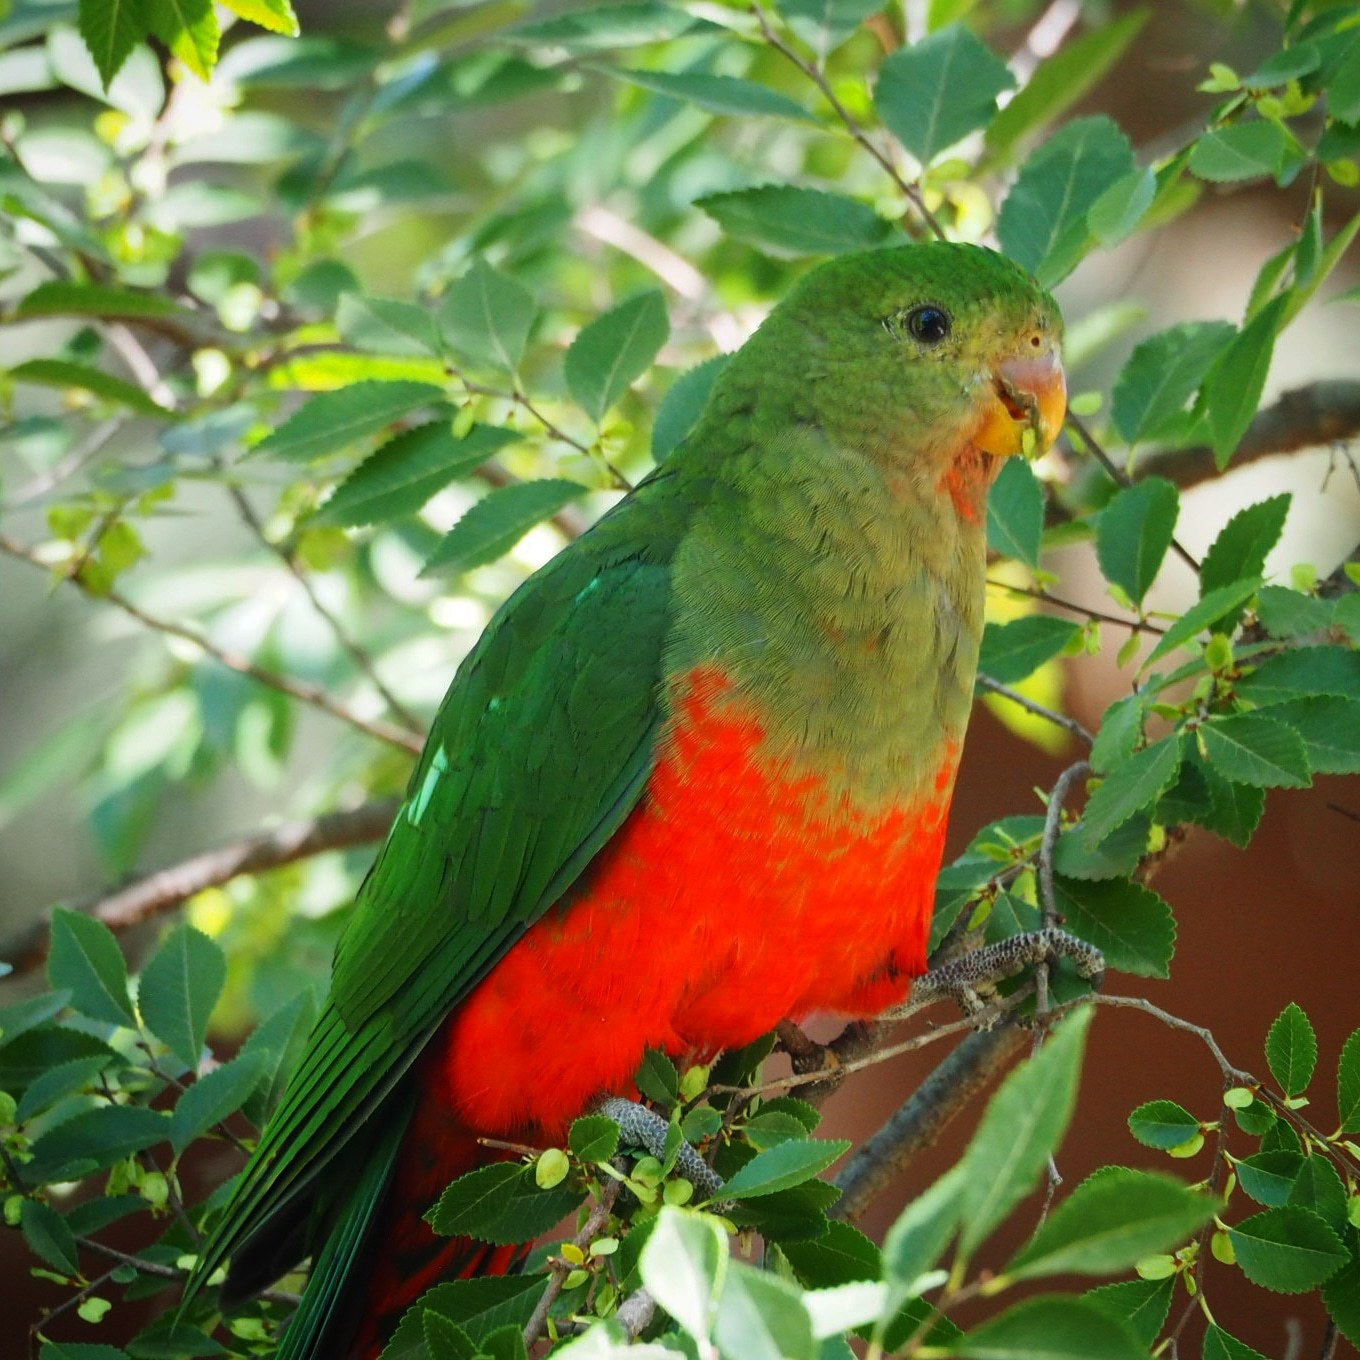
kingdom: Animalia
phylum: Chordata
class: Aves
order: Psittaciformes
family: Psittacidae
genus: Alisterus
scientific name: Alisterus scapularis
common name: Australian king parrot
